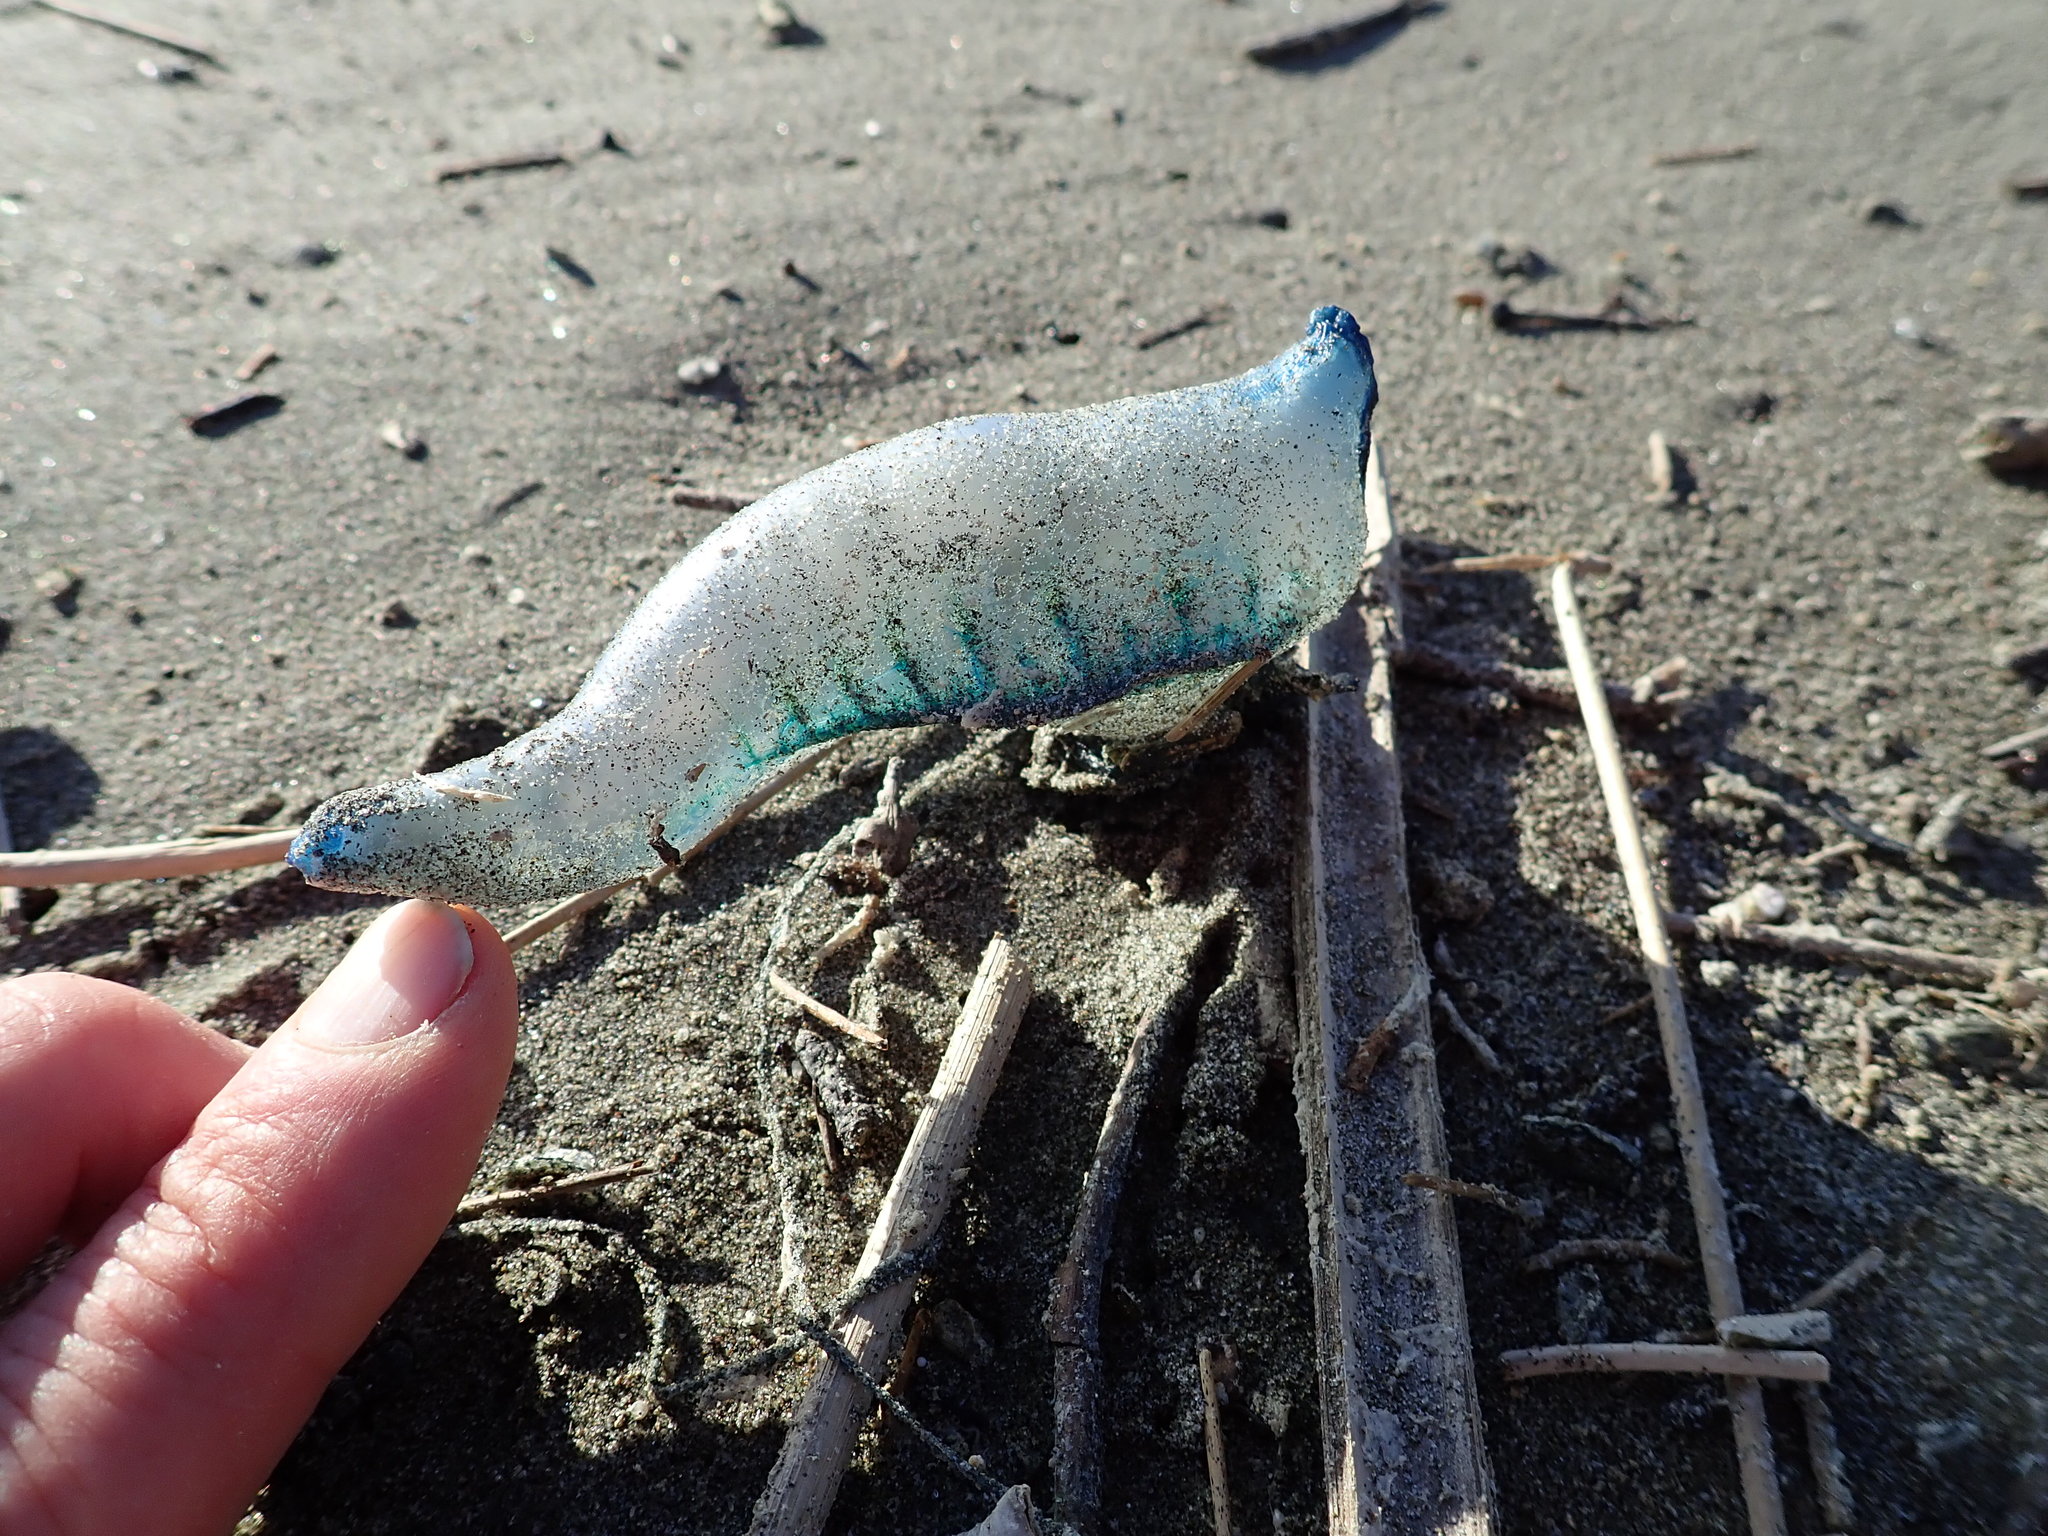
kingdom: Animalia
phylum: Cnidaria
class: Hydrozoa
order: Siphonophorae
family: Physaliidae
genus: Physalia
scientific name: Physalia physalis
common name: Portuguese man-of-war
